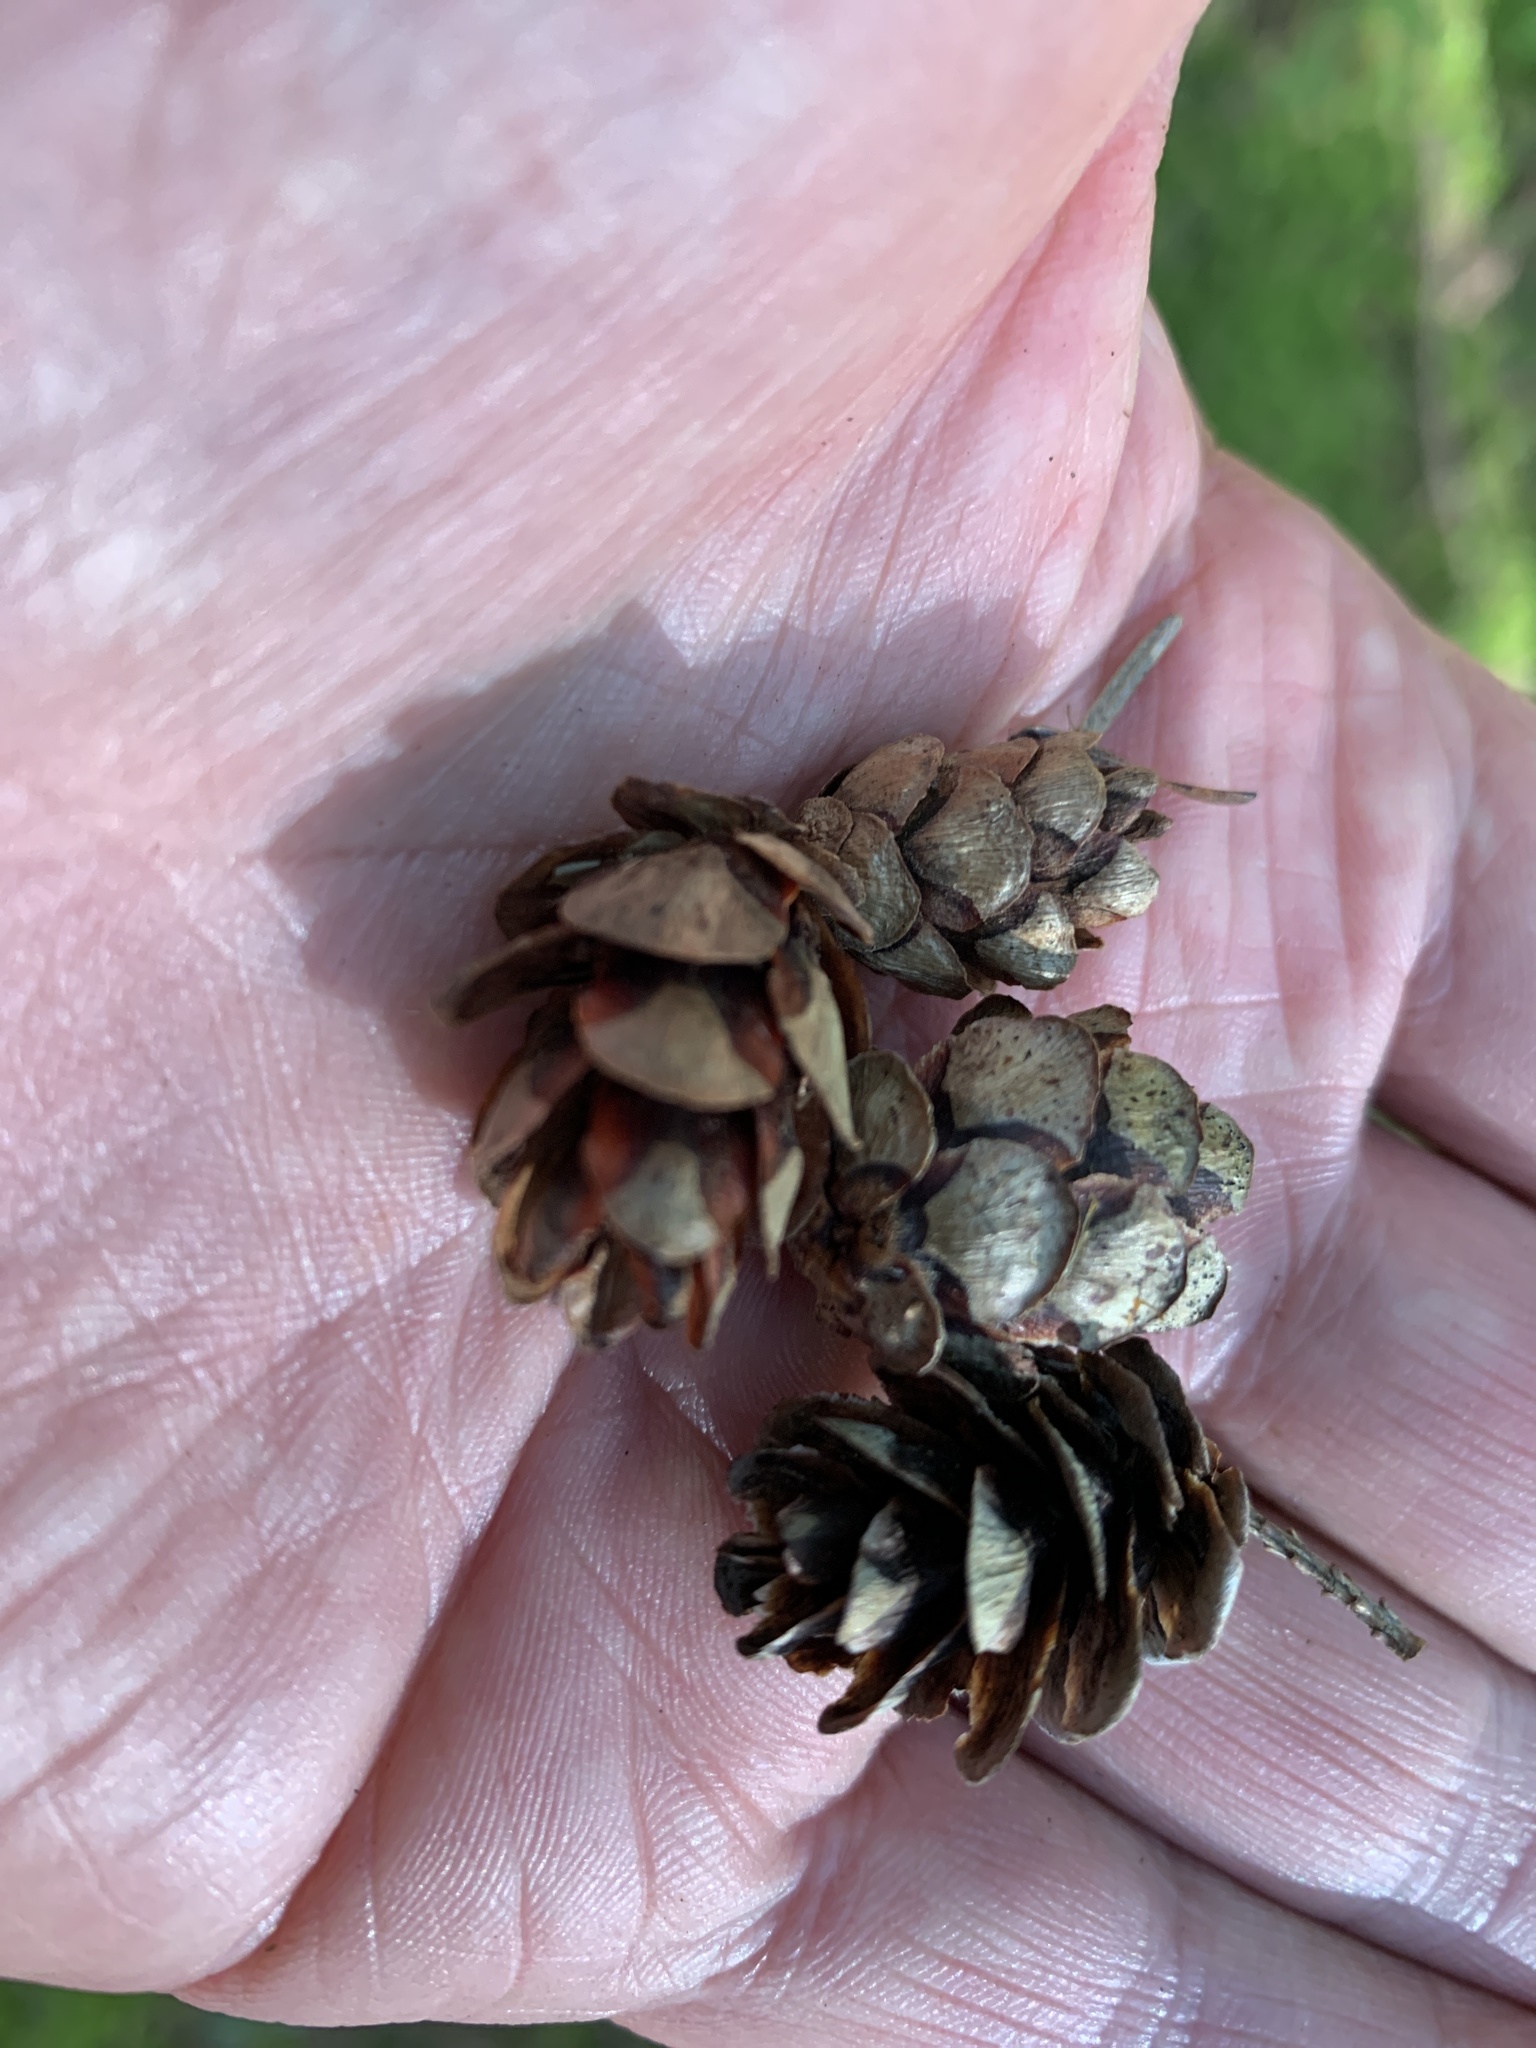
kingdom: Plantae
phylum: Tracheophyta
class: Pinopsida
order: Pinales
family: Pinaceae
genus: Tsuga
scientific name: Tsuga heterophylla
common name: Western hemlock
